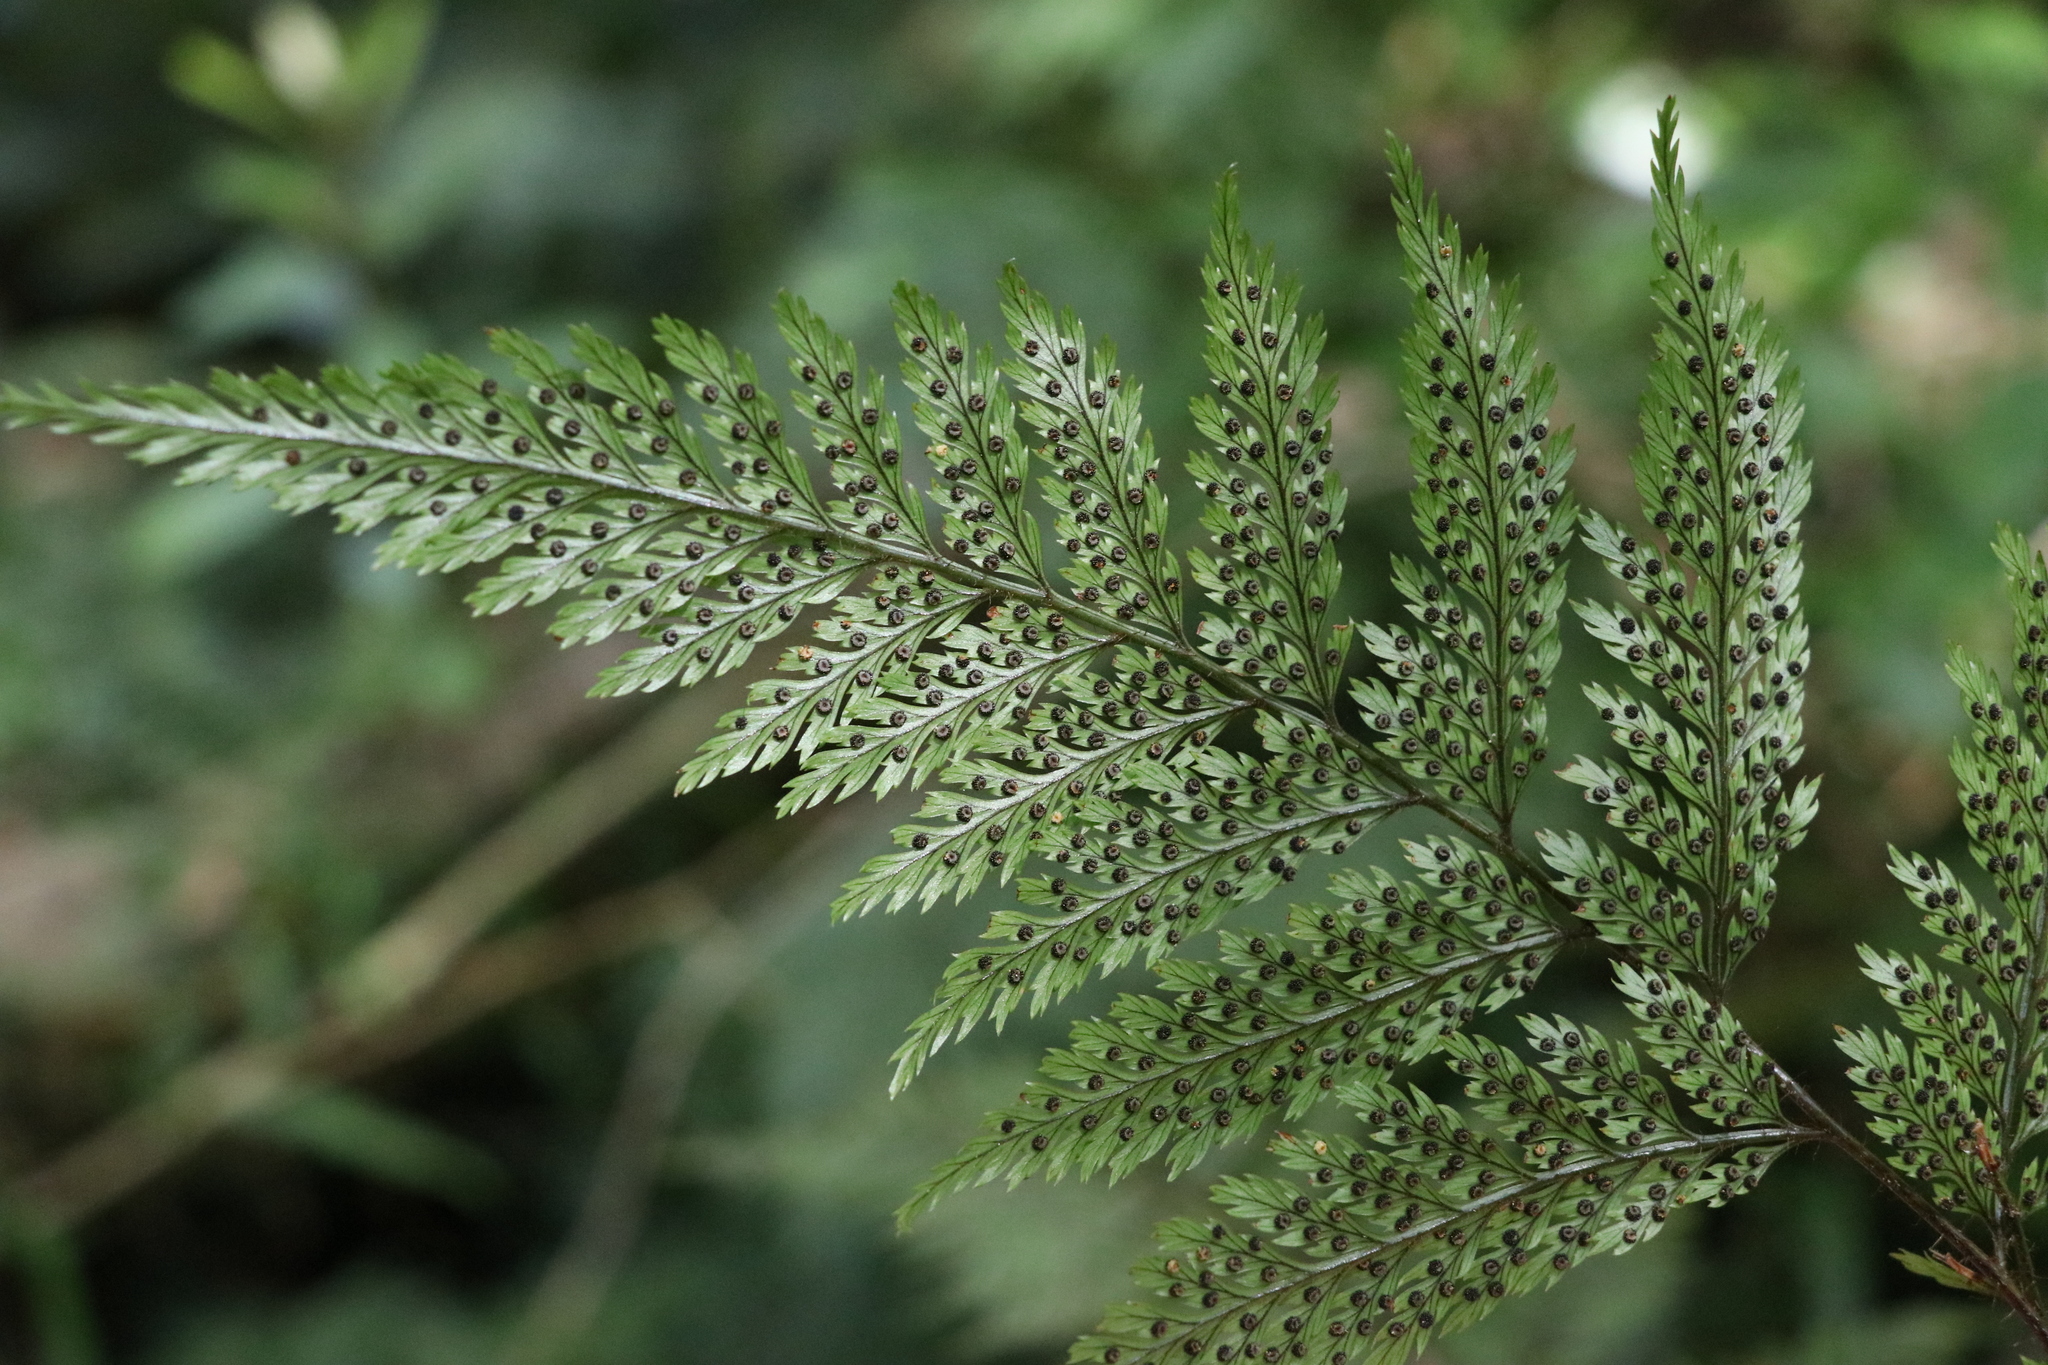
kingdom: Plantae
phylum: Tracheophyta
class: Polypodiopsida
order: Polypodiales
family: Dryopteridaceae
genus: Lastreopsis
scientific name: Lastreopsis hispida
